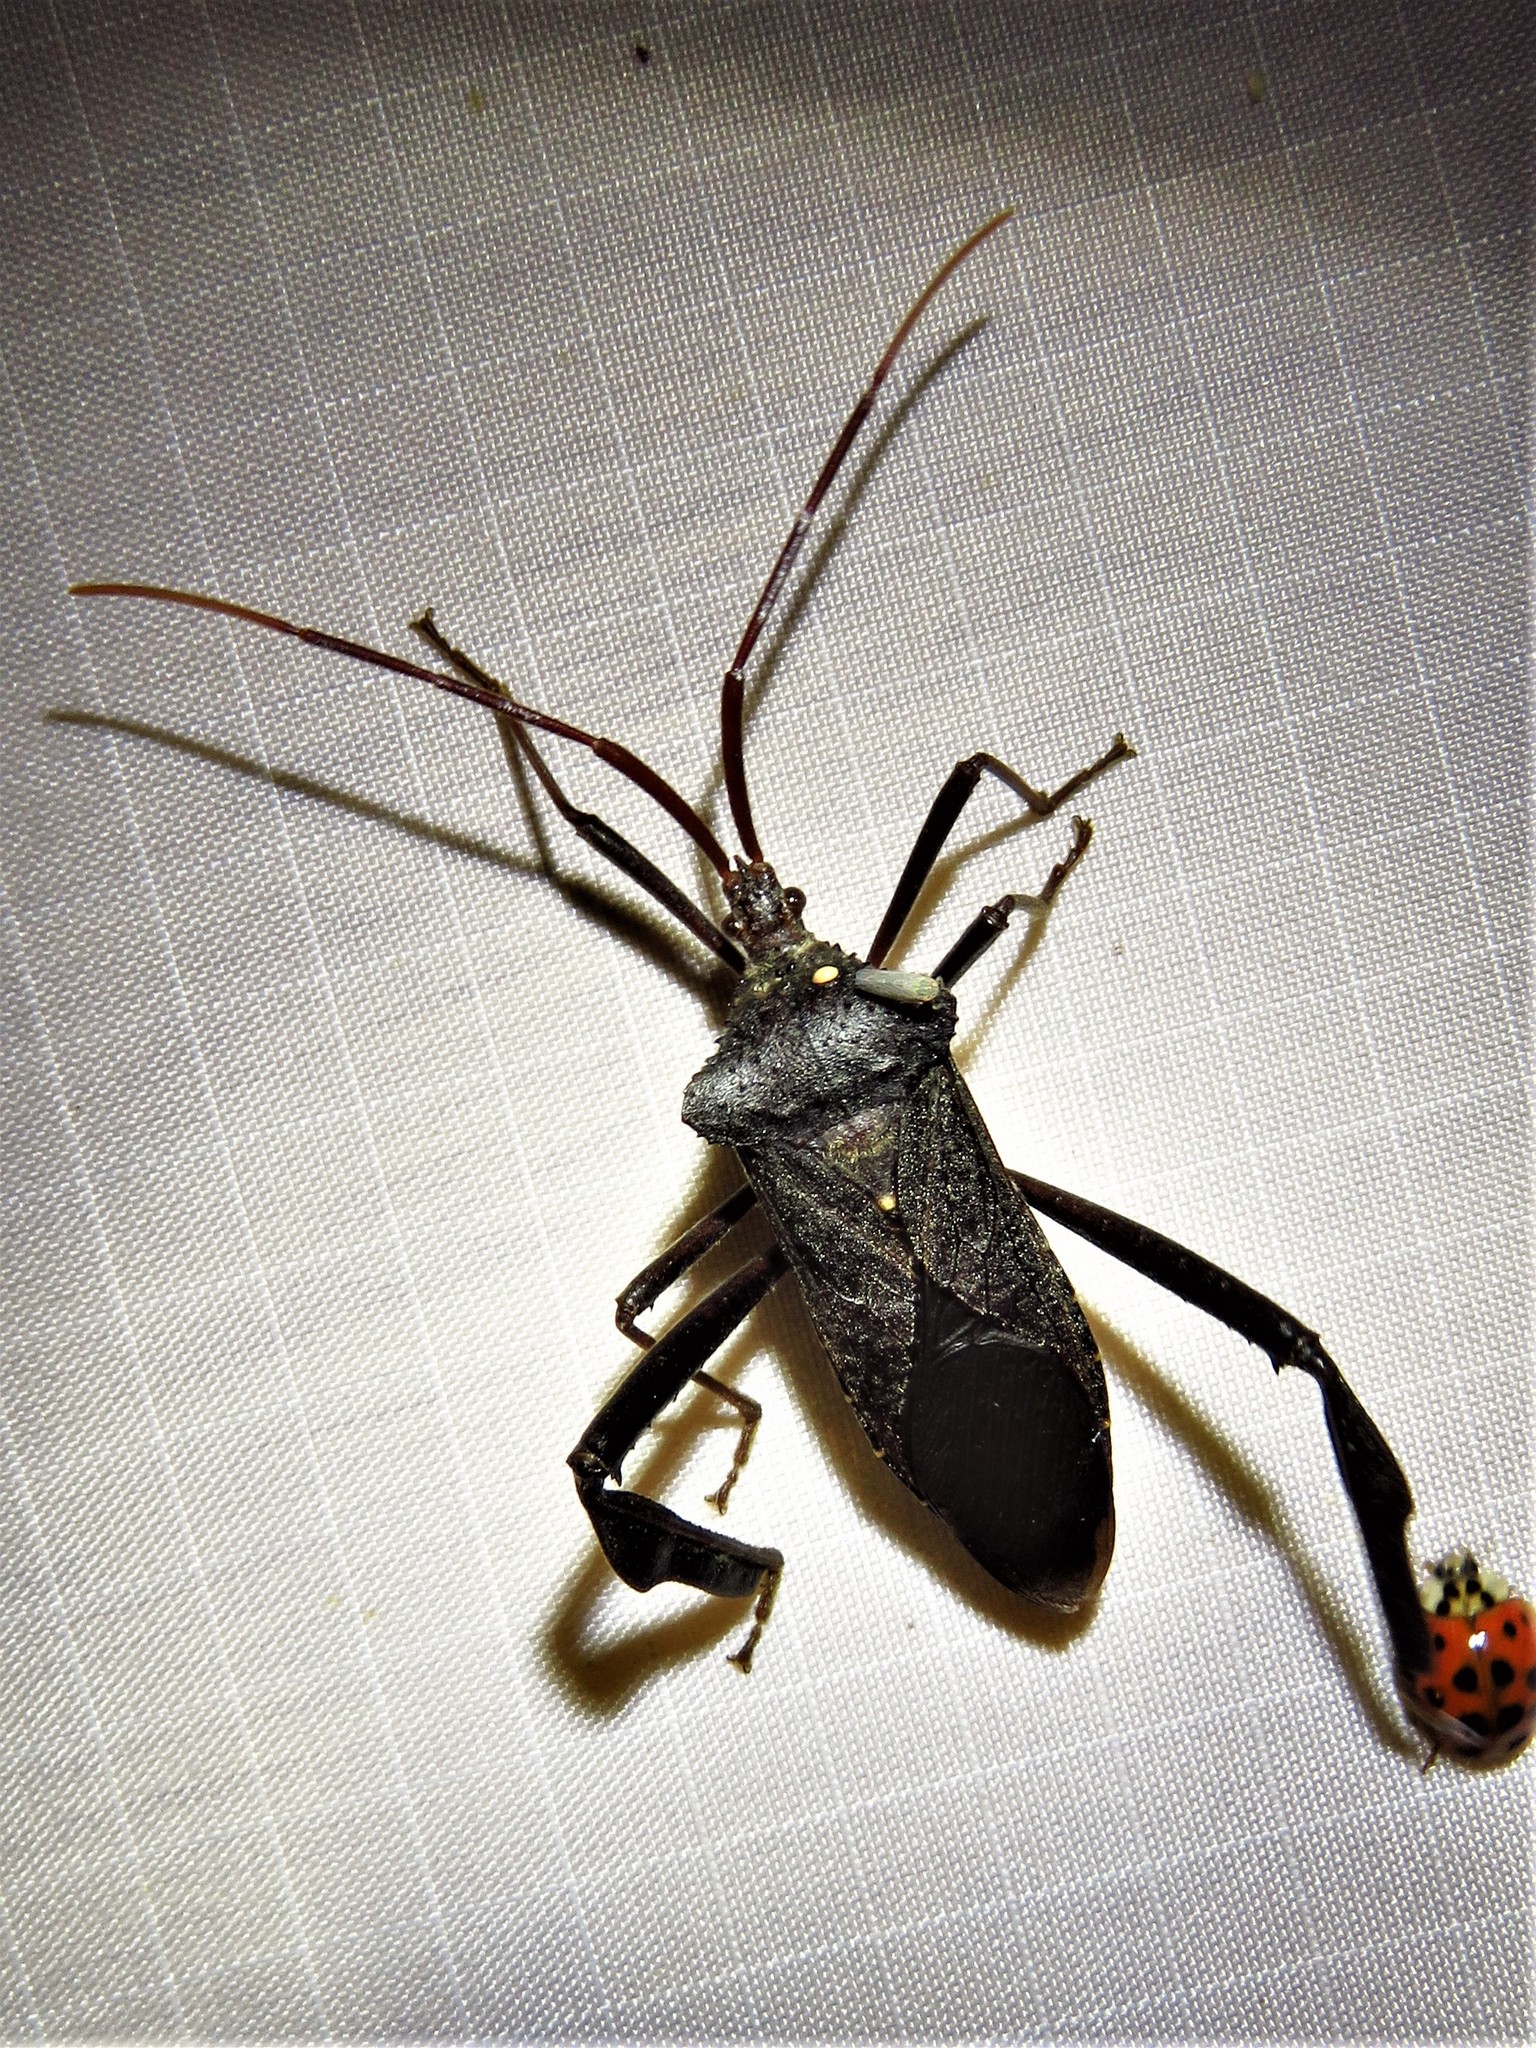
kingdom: Animalia
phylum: Arthropoda
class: Insecta
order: Hemiptera
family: Coreidae
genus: Acanthocephala
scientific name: Acanthocephala declivis
